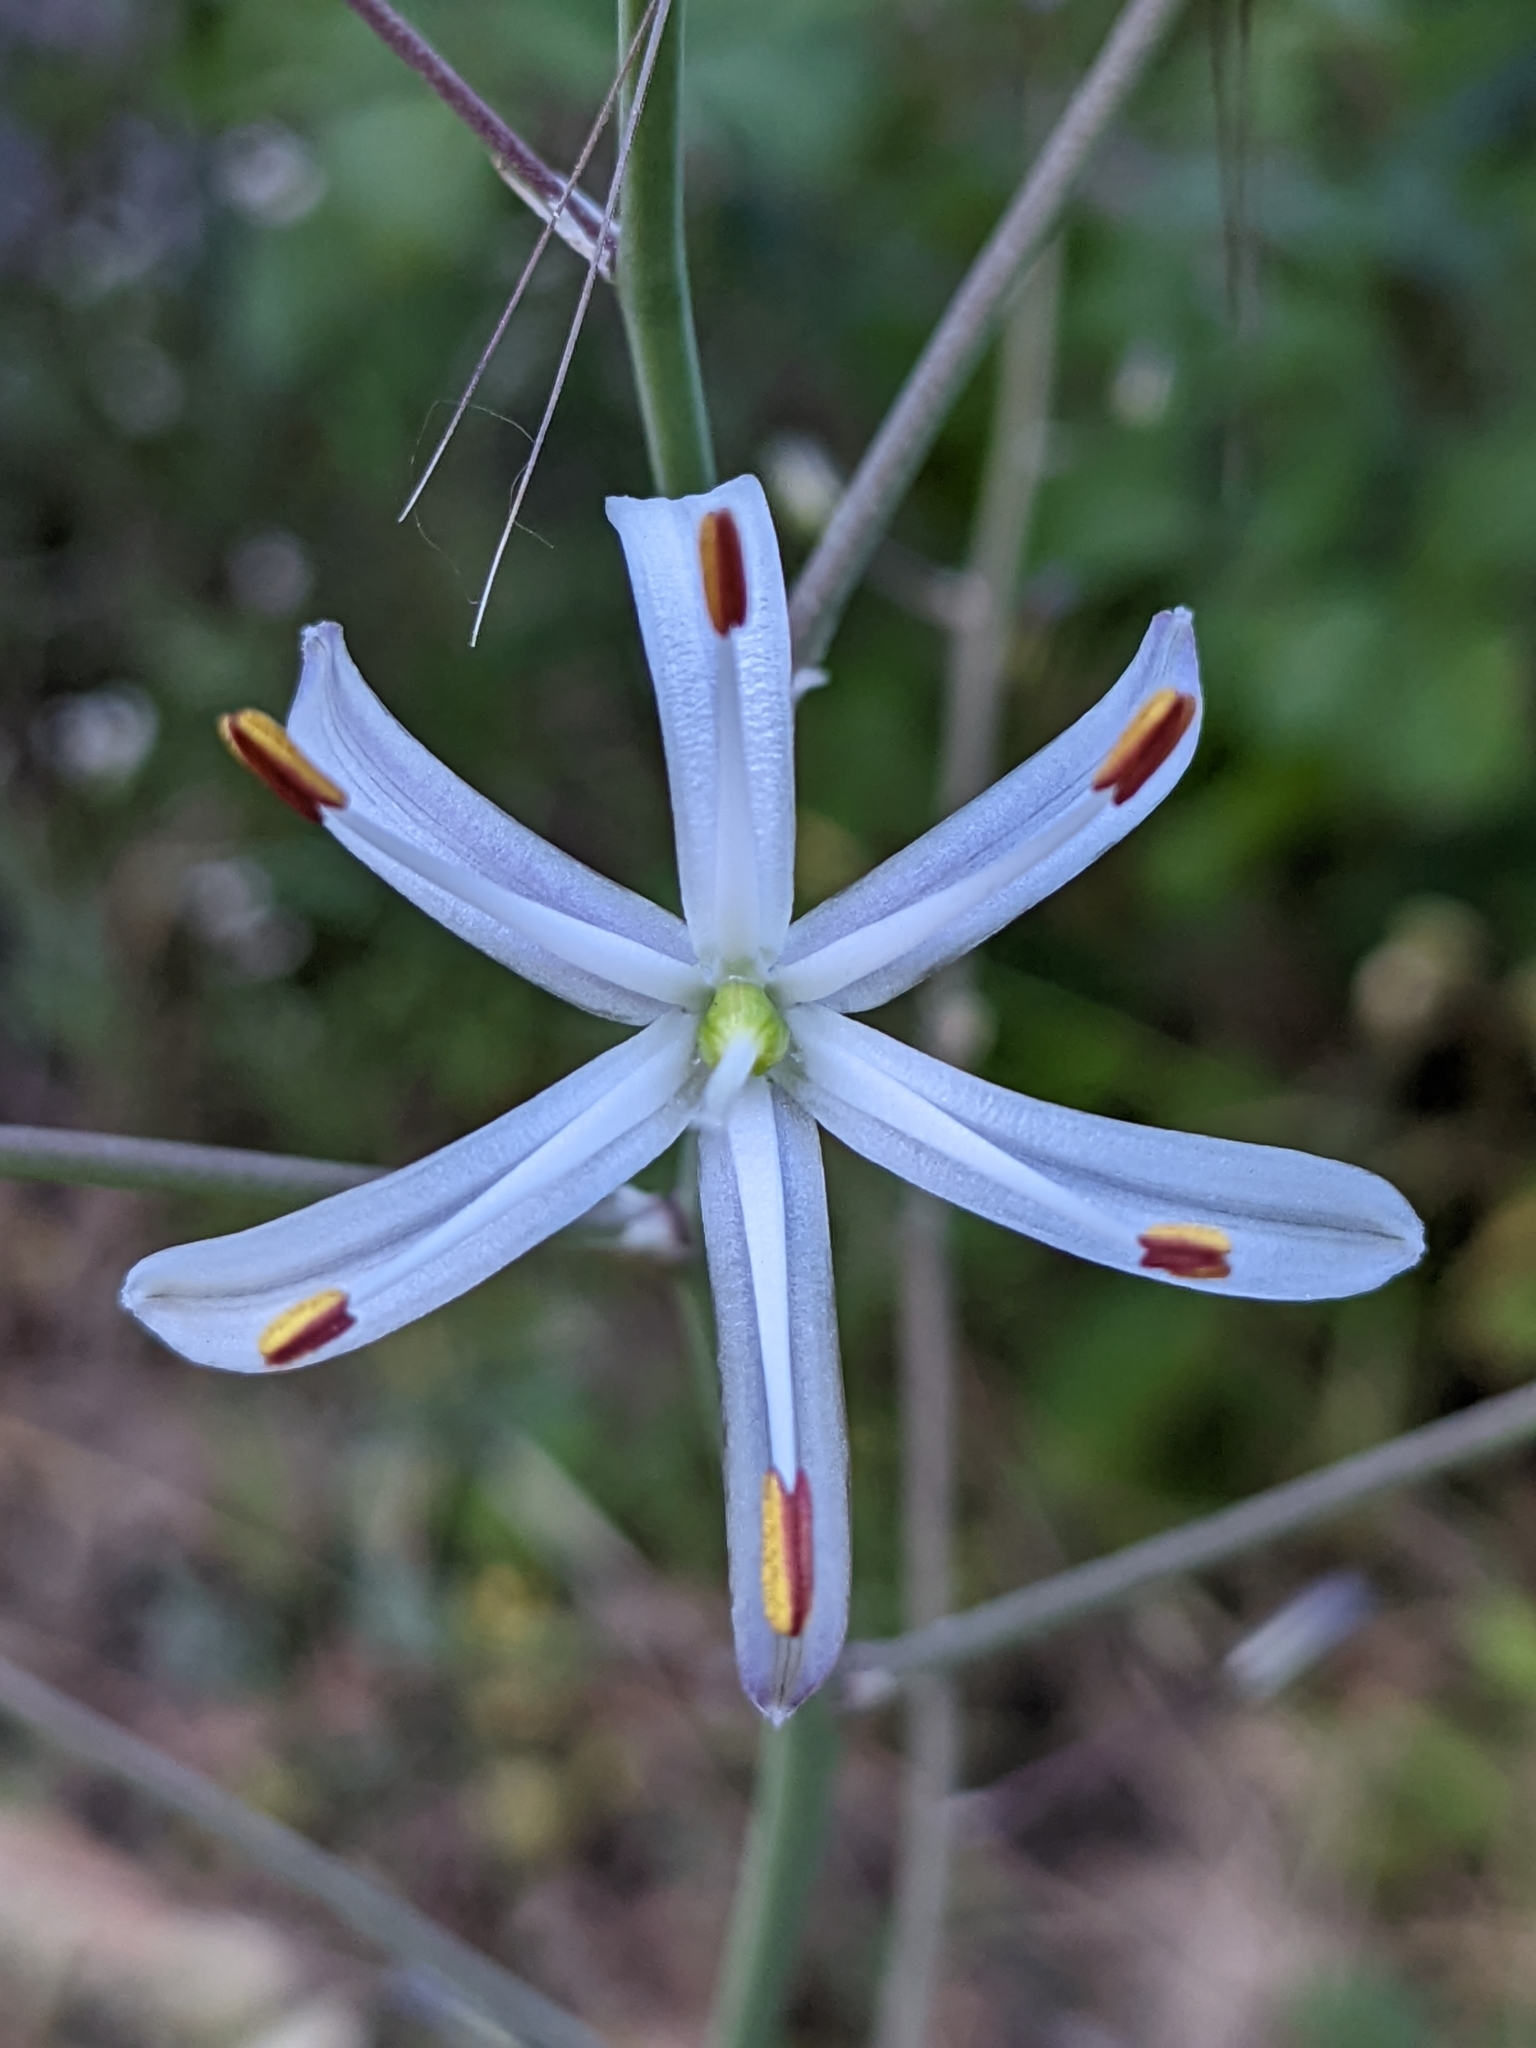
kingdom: Plantae
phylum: Tracheophyta
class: Liliopsida
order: Asparagales
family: Asparagaceae
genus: Chlorogalum
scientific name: Chlorogalum pomeridianum
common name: Amole
